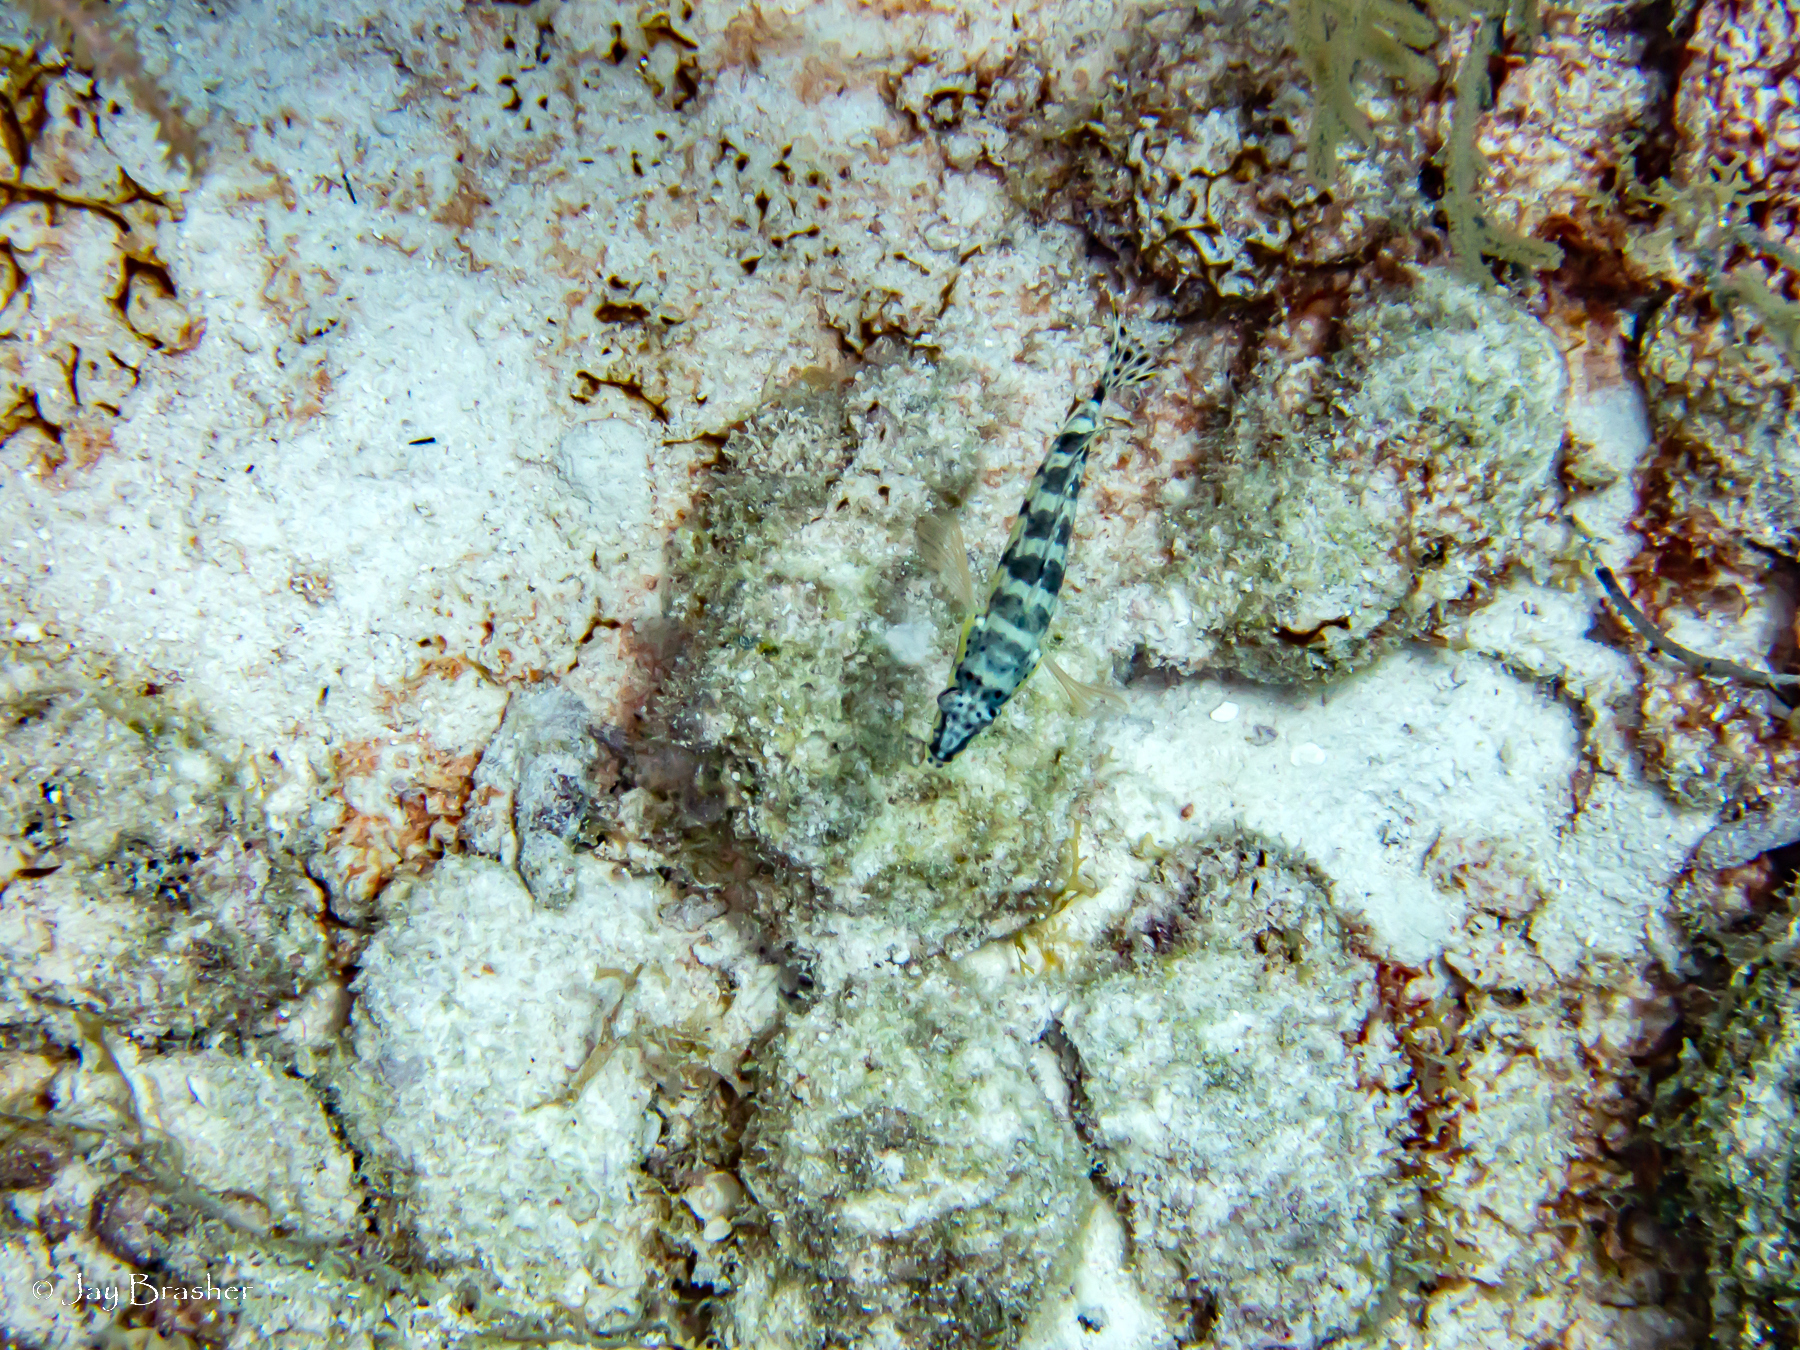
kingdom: Animalia
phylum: Chordata
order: Perciformes
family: Serranidae
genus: Serranus
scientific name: Serranus tigrinus
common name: Harlequin bass
